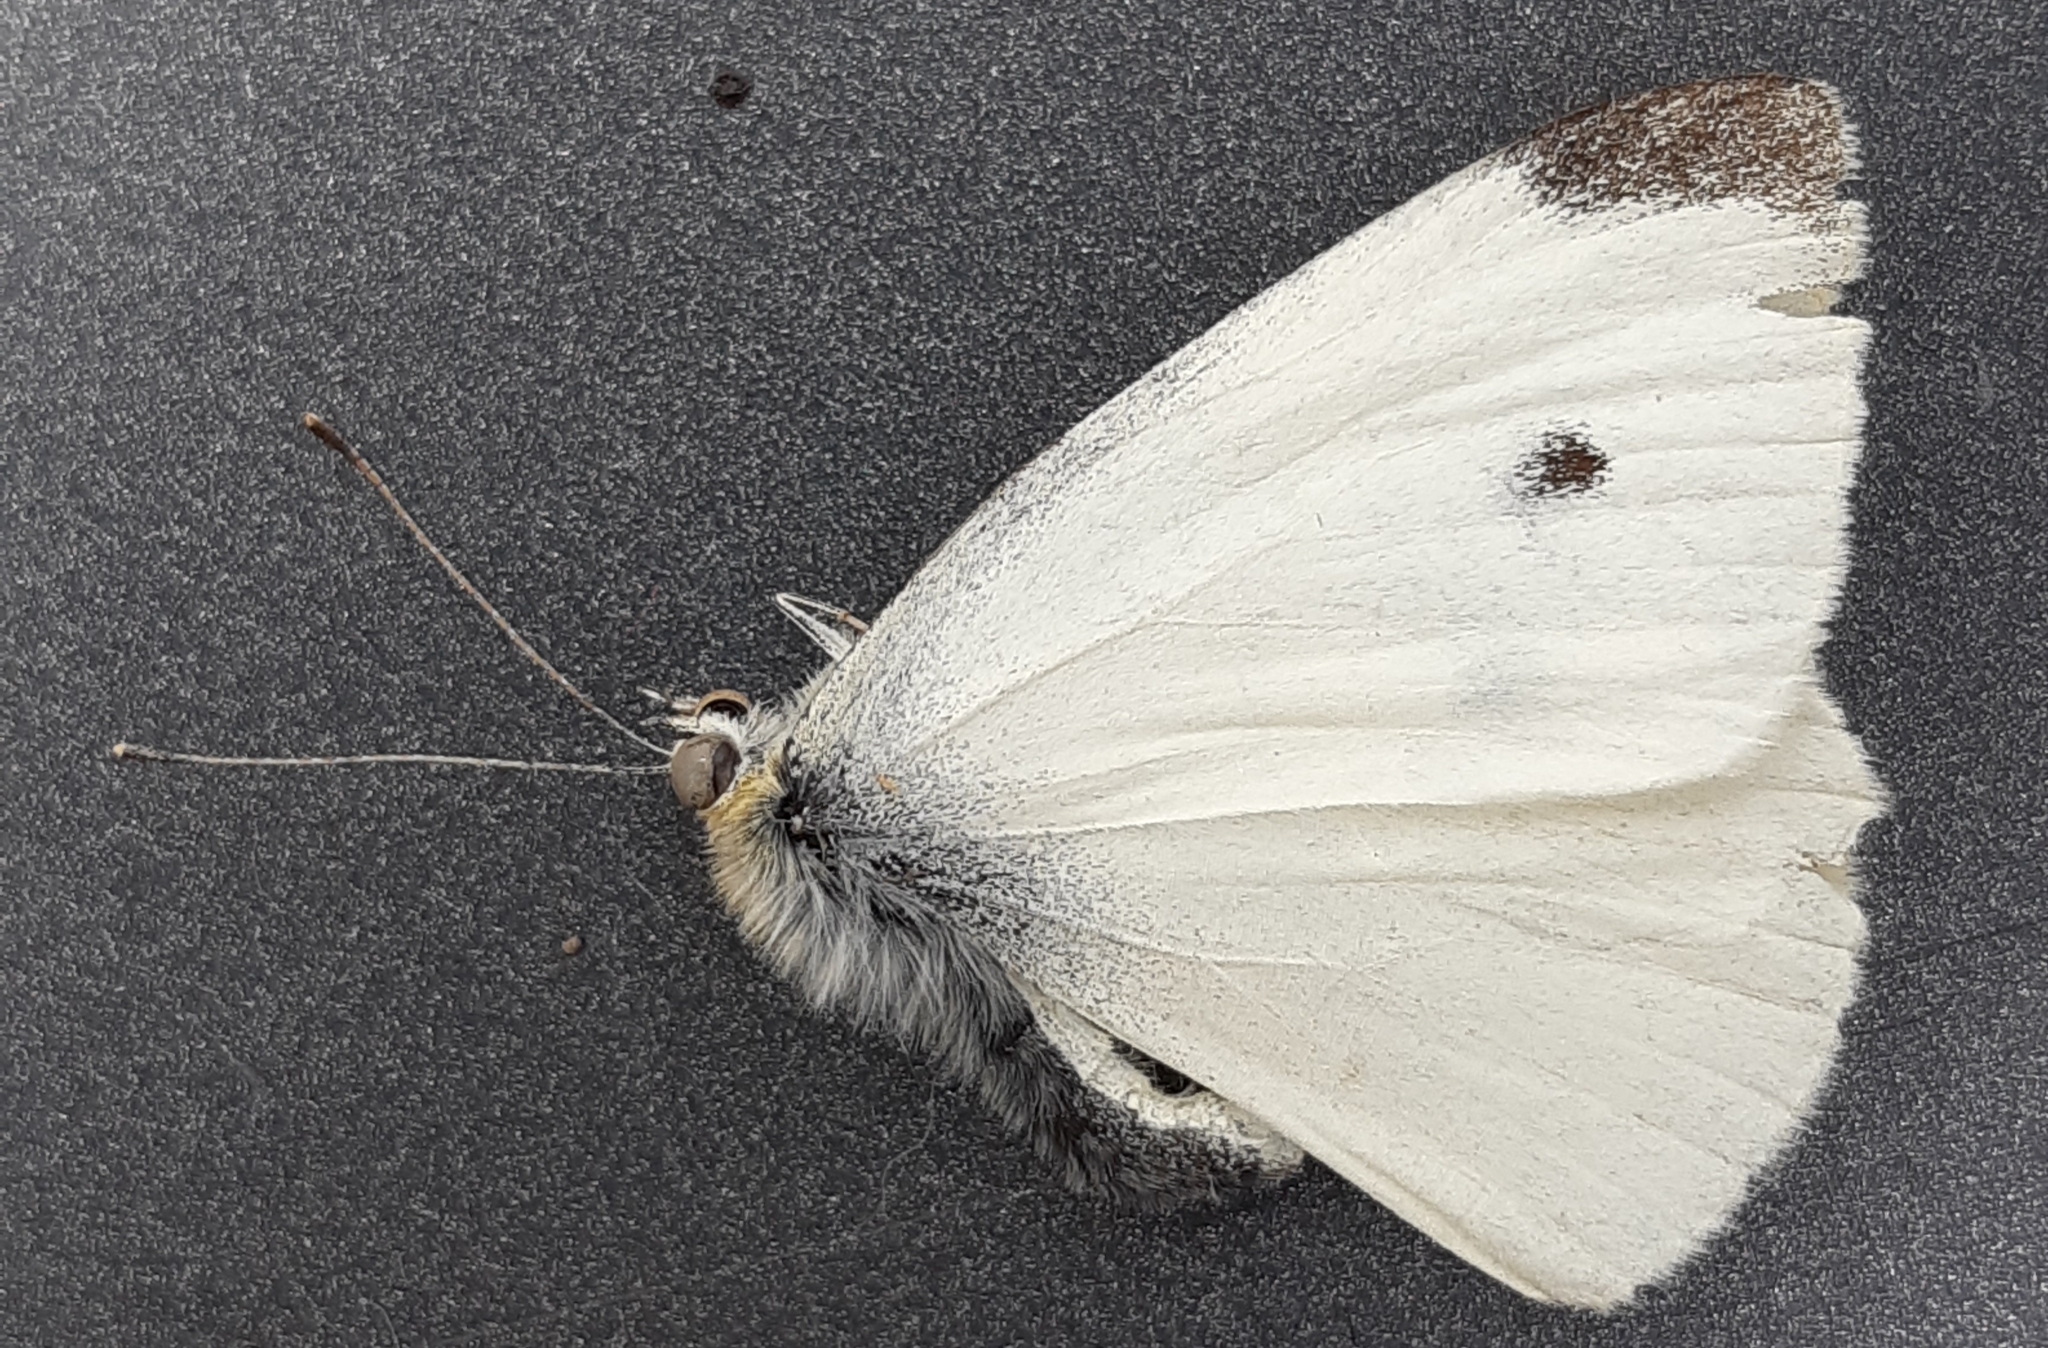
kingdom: Animalia
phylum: Arthropoda
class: Insecta
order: Lepidoptera
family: Pieridae
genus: Pieris
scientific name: Pieris rapae
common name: Small white
